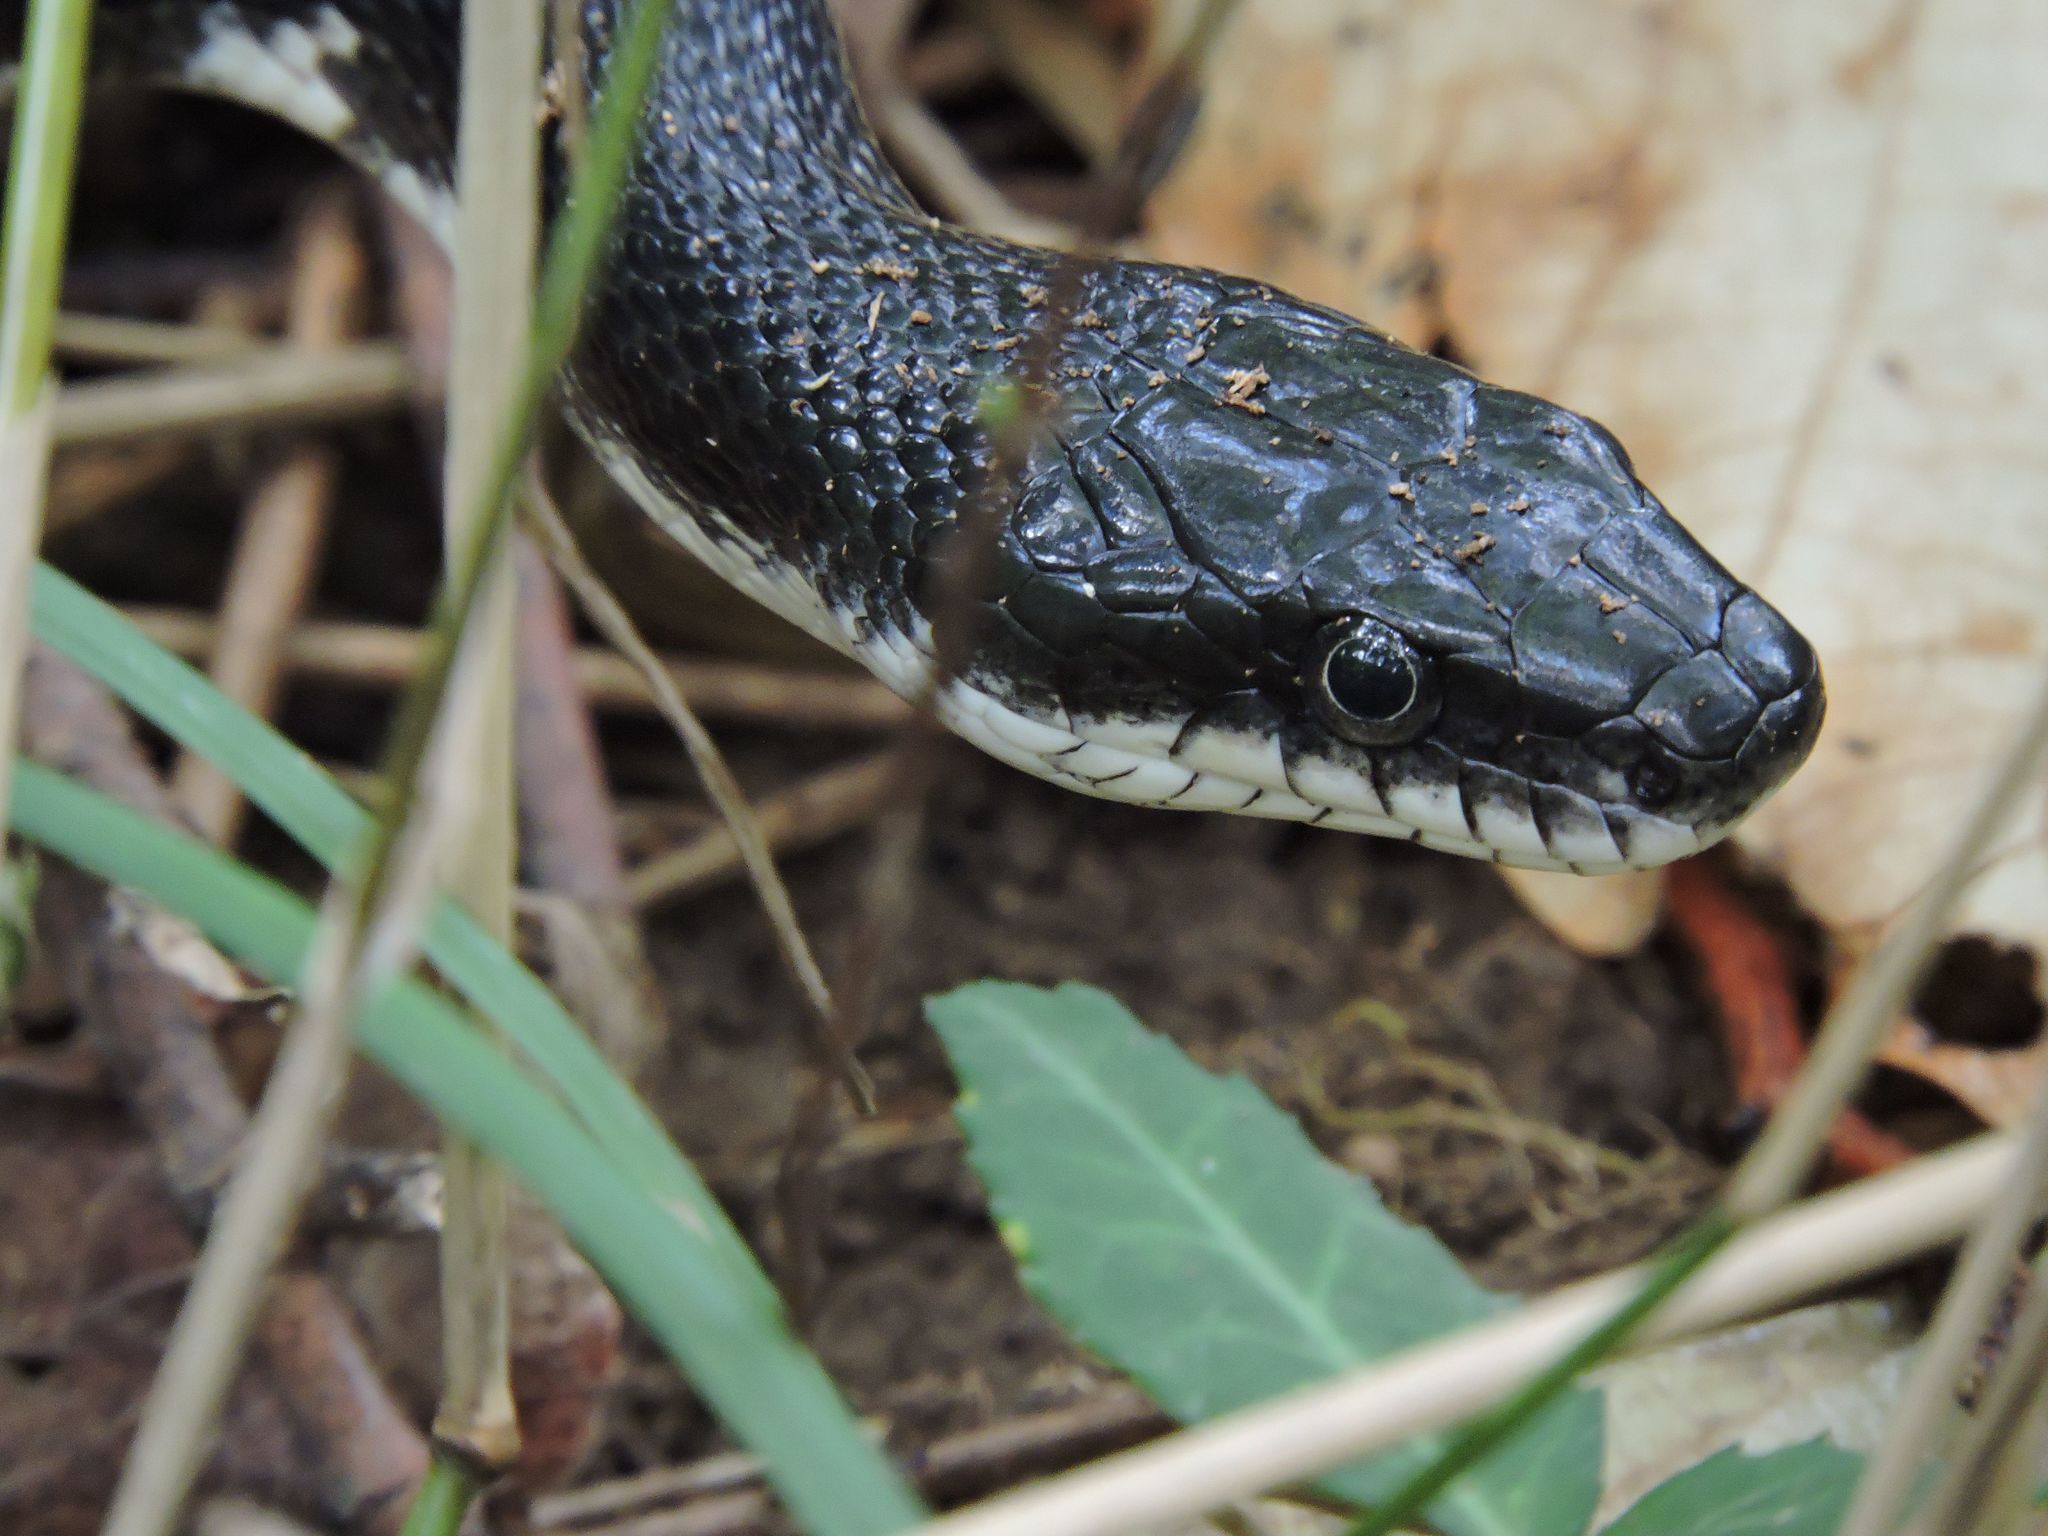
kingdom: Animalia
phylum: Chordata
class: Squamata
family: Colubridae
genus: Pantherophis
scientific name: Pantherophis alleghaniensis
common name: Eastern rat snake
